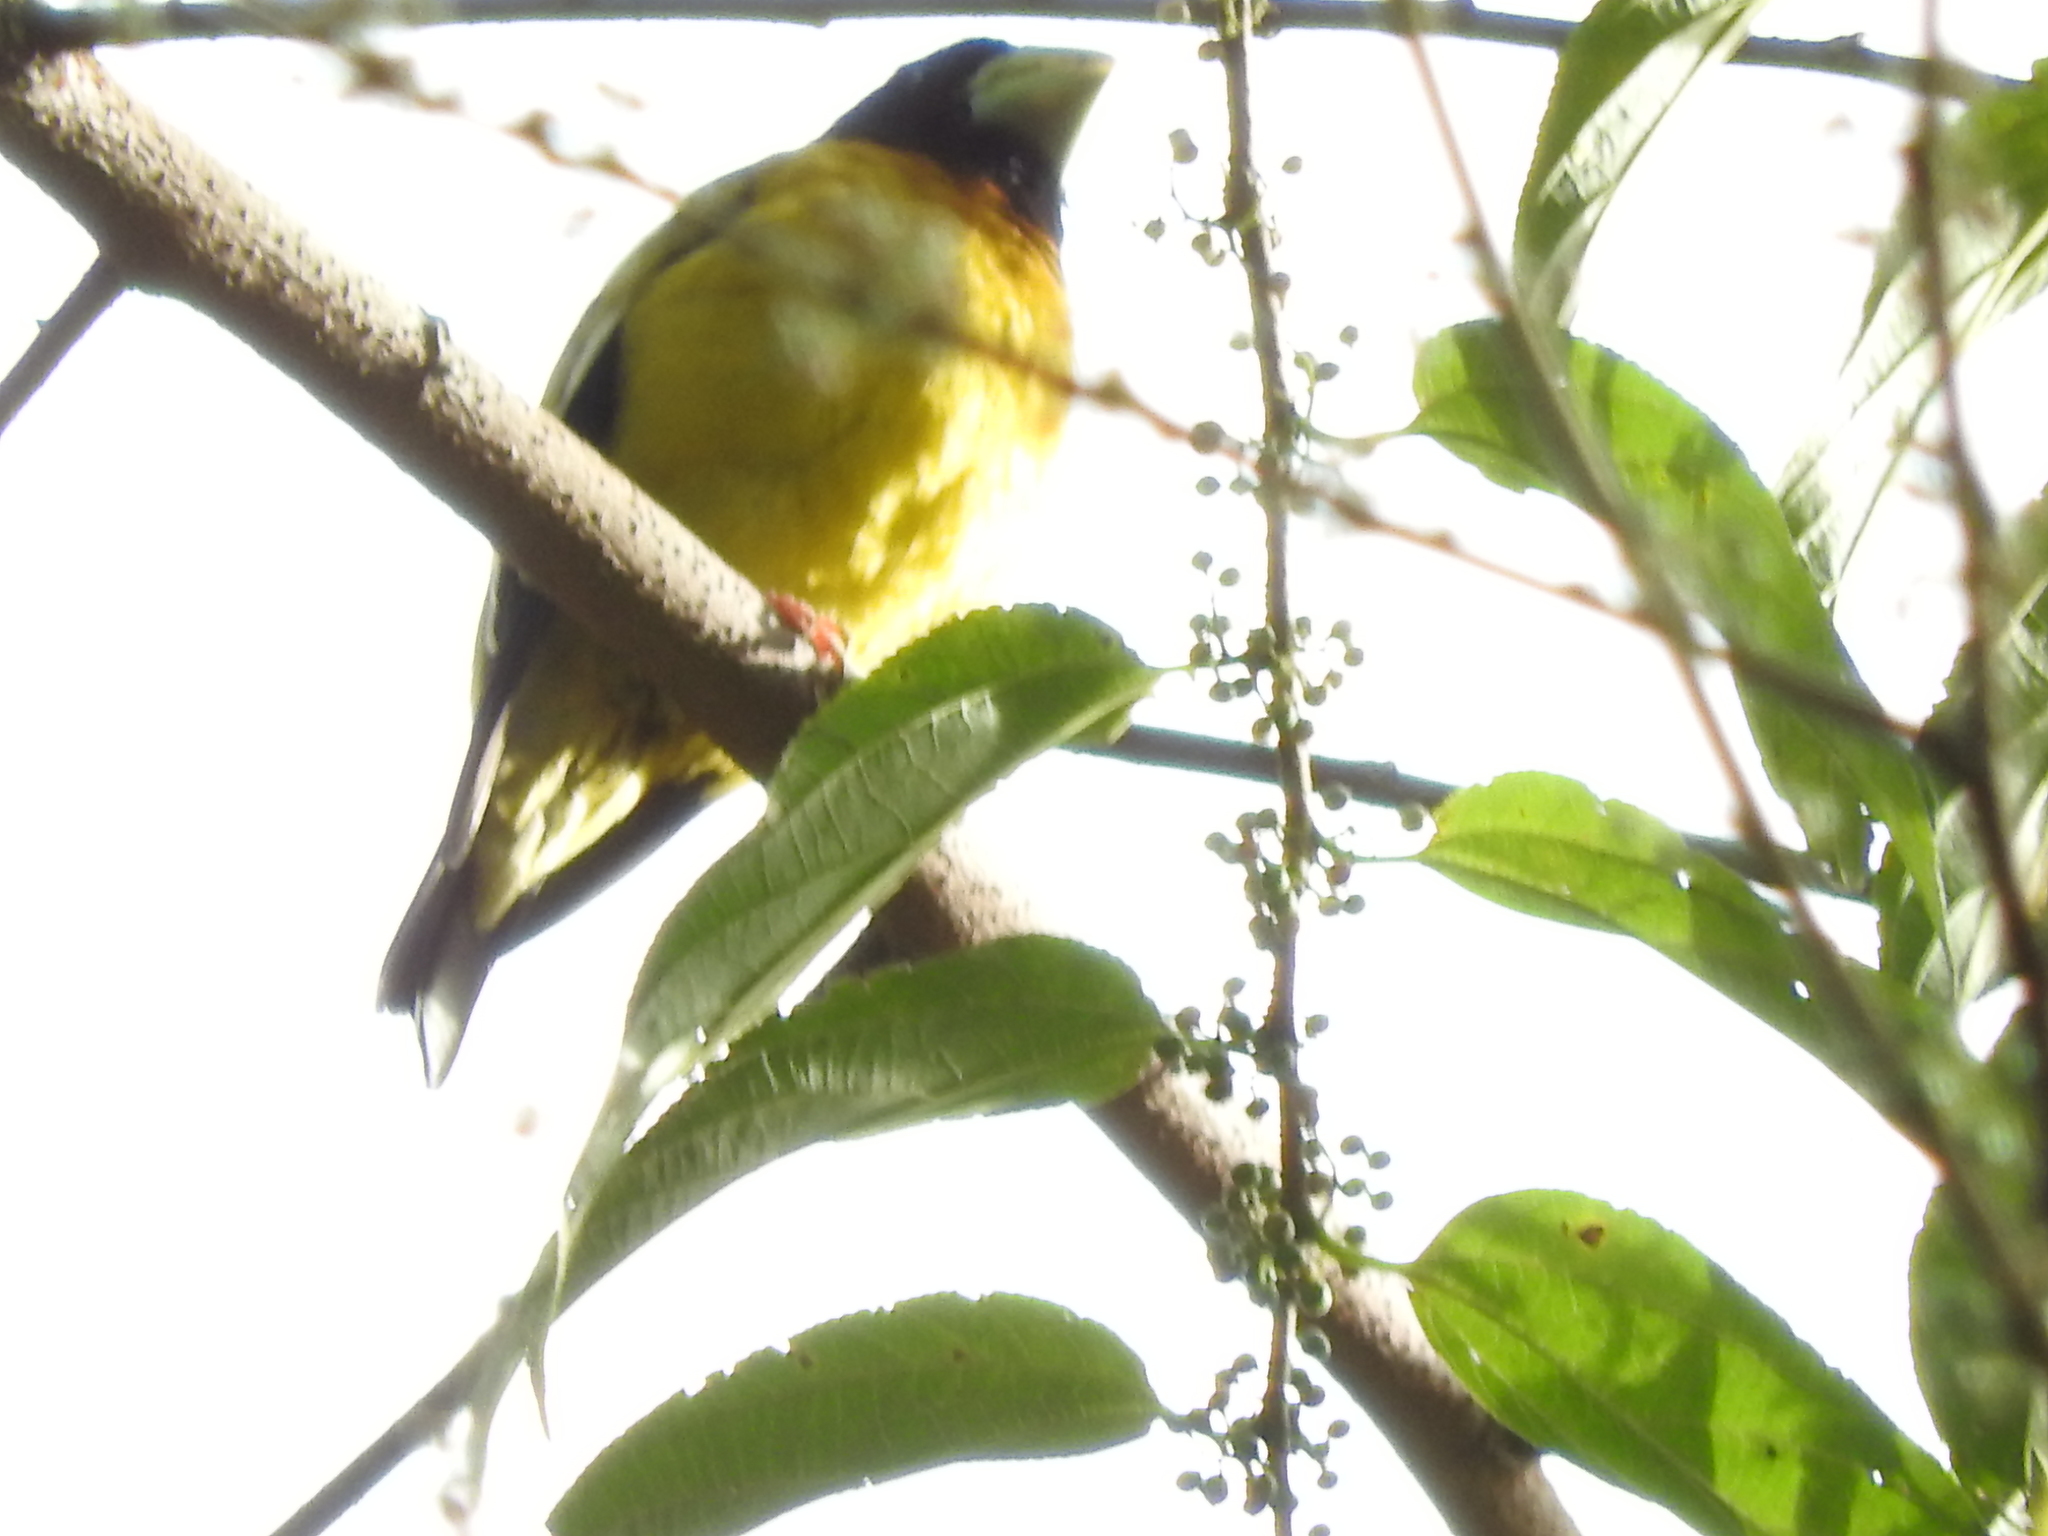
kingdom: Animalia
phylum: Chordata
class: Aves
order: Passeriformes
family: Fringillidae
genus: Hesperiphona
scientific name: Hesperiphona abeillei
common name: Hooded grosbeak
